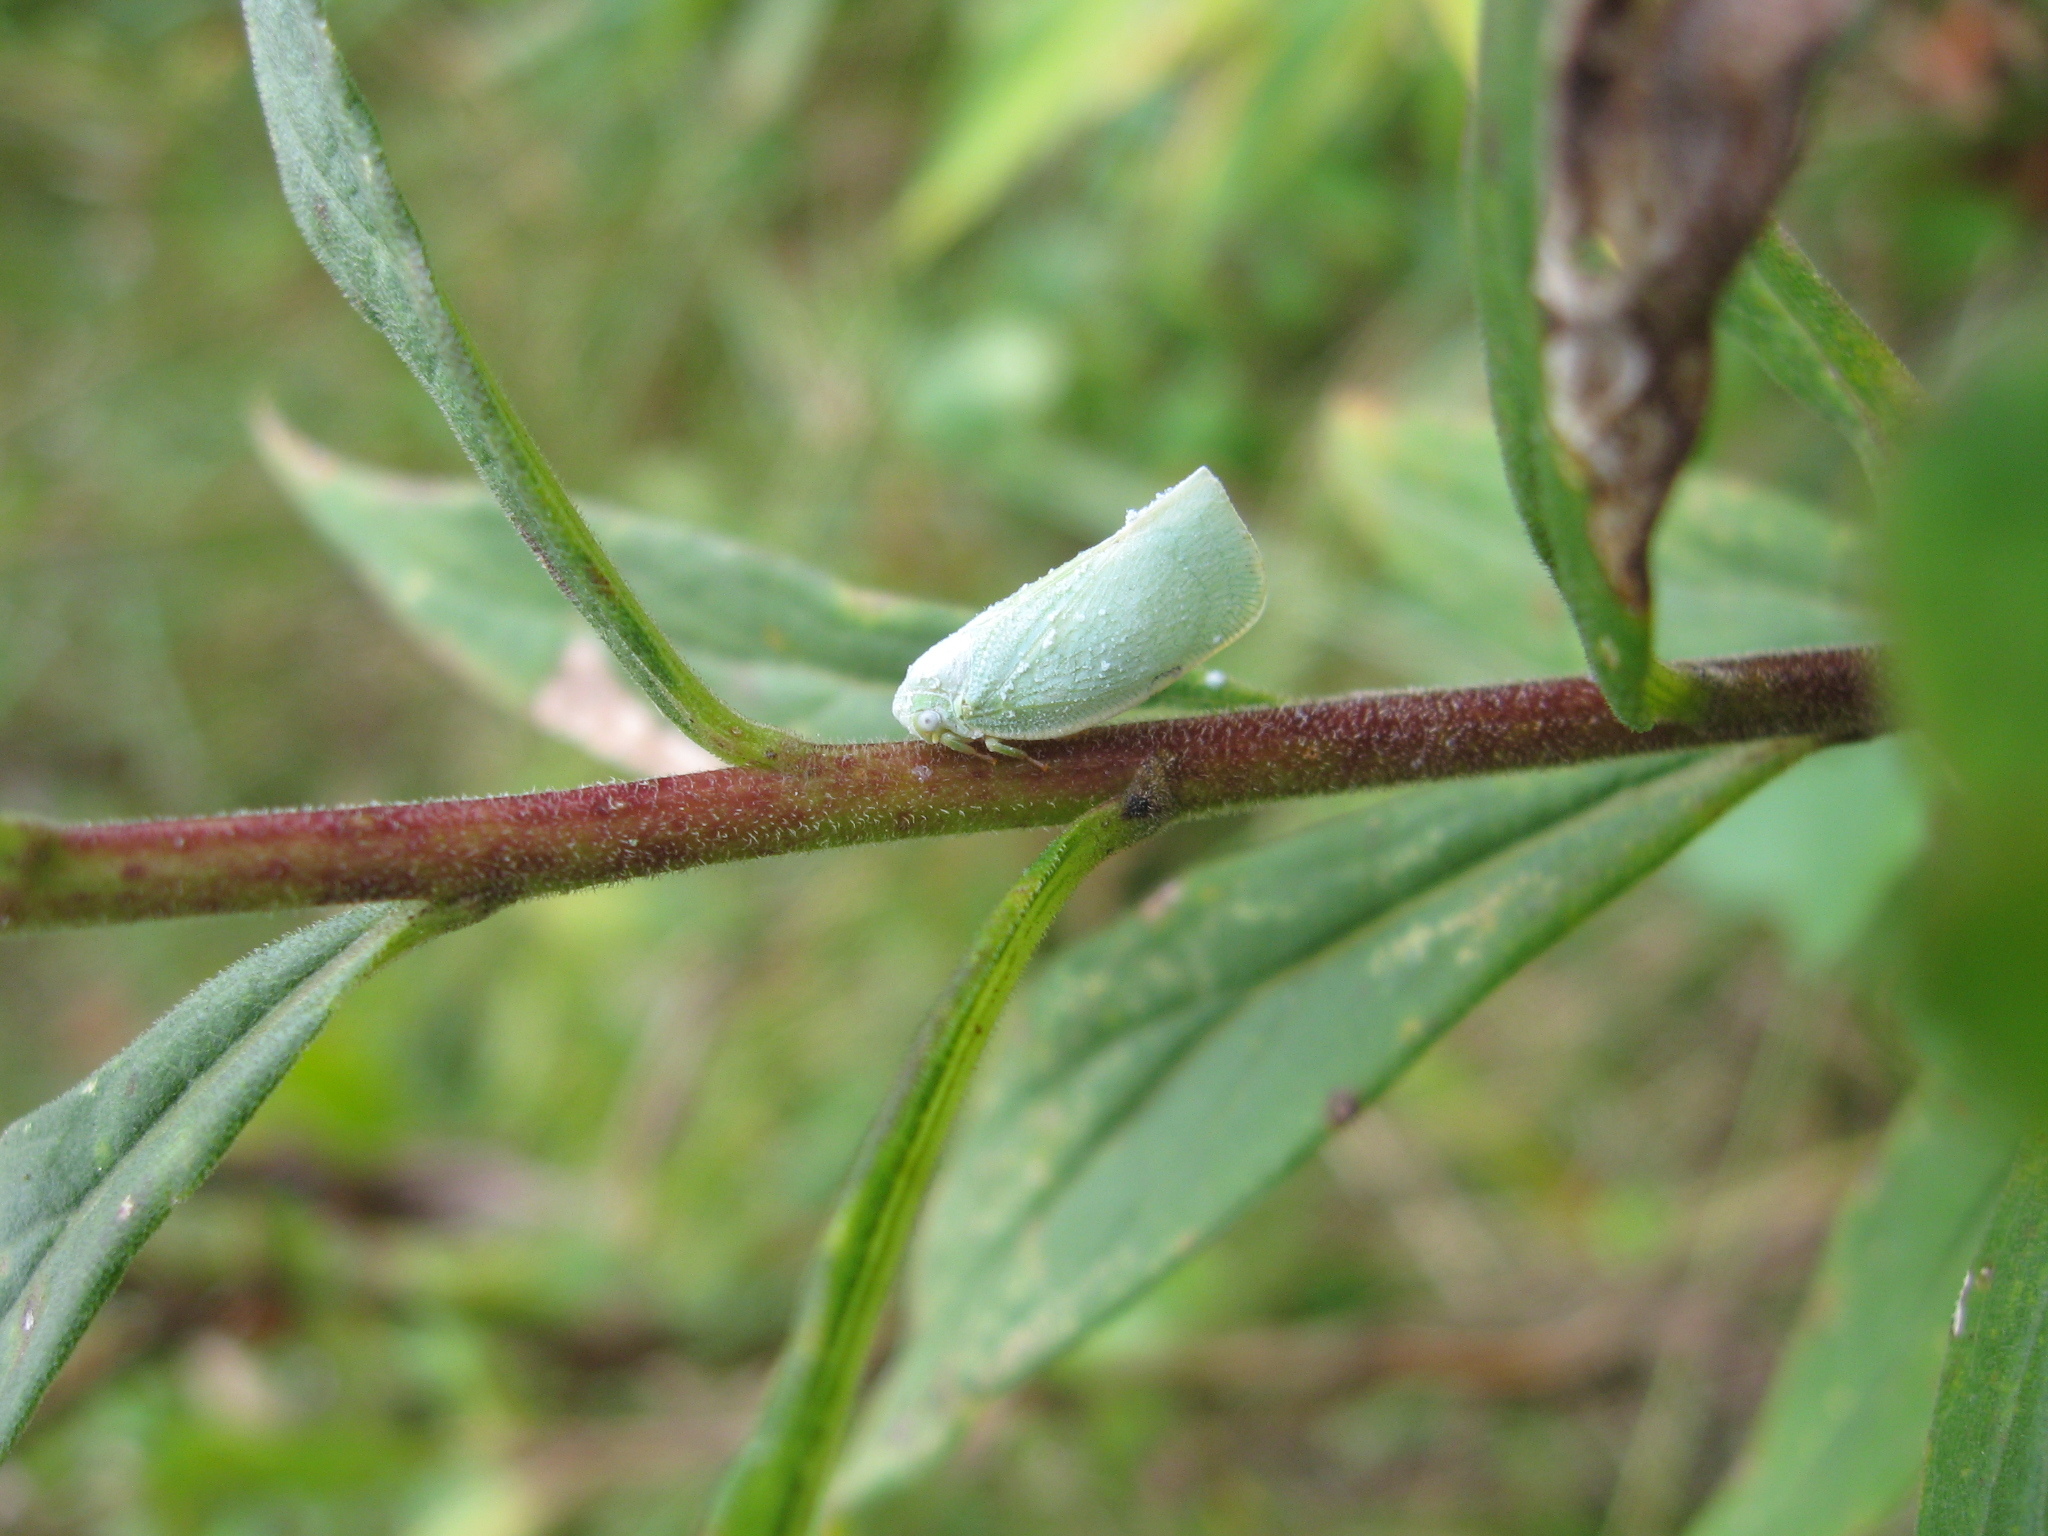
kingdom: Animalia
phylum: Arthropoda
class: Insecta
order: Hemiptera
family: Flatidae
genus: Flatormenis
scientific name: Flatormenis proxima
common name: Northern flatid planthopper
